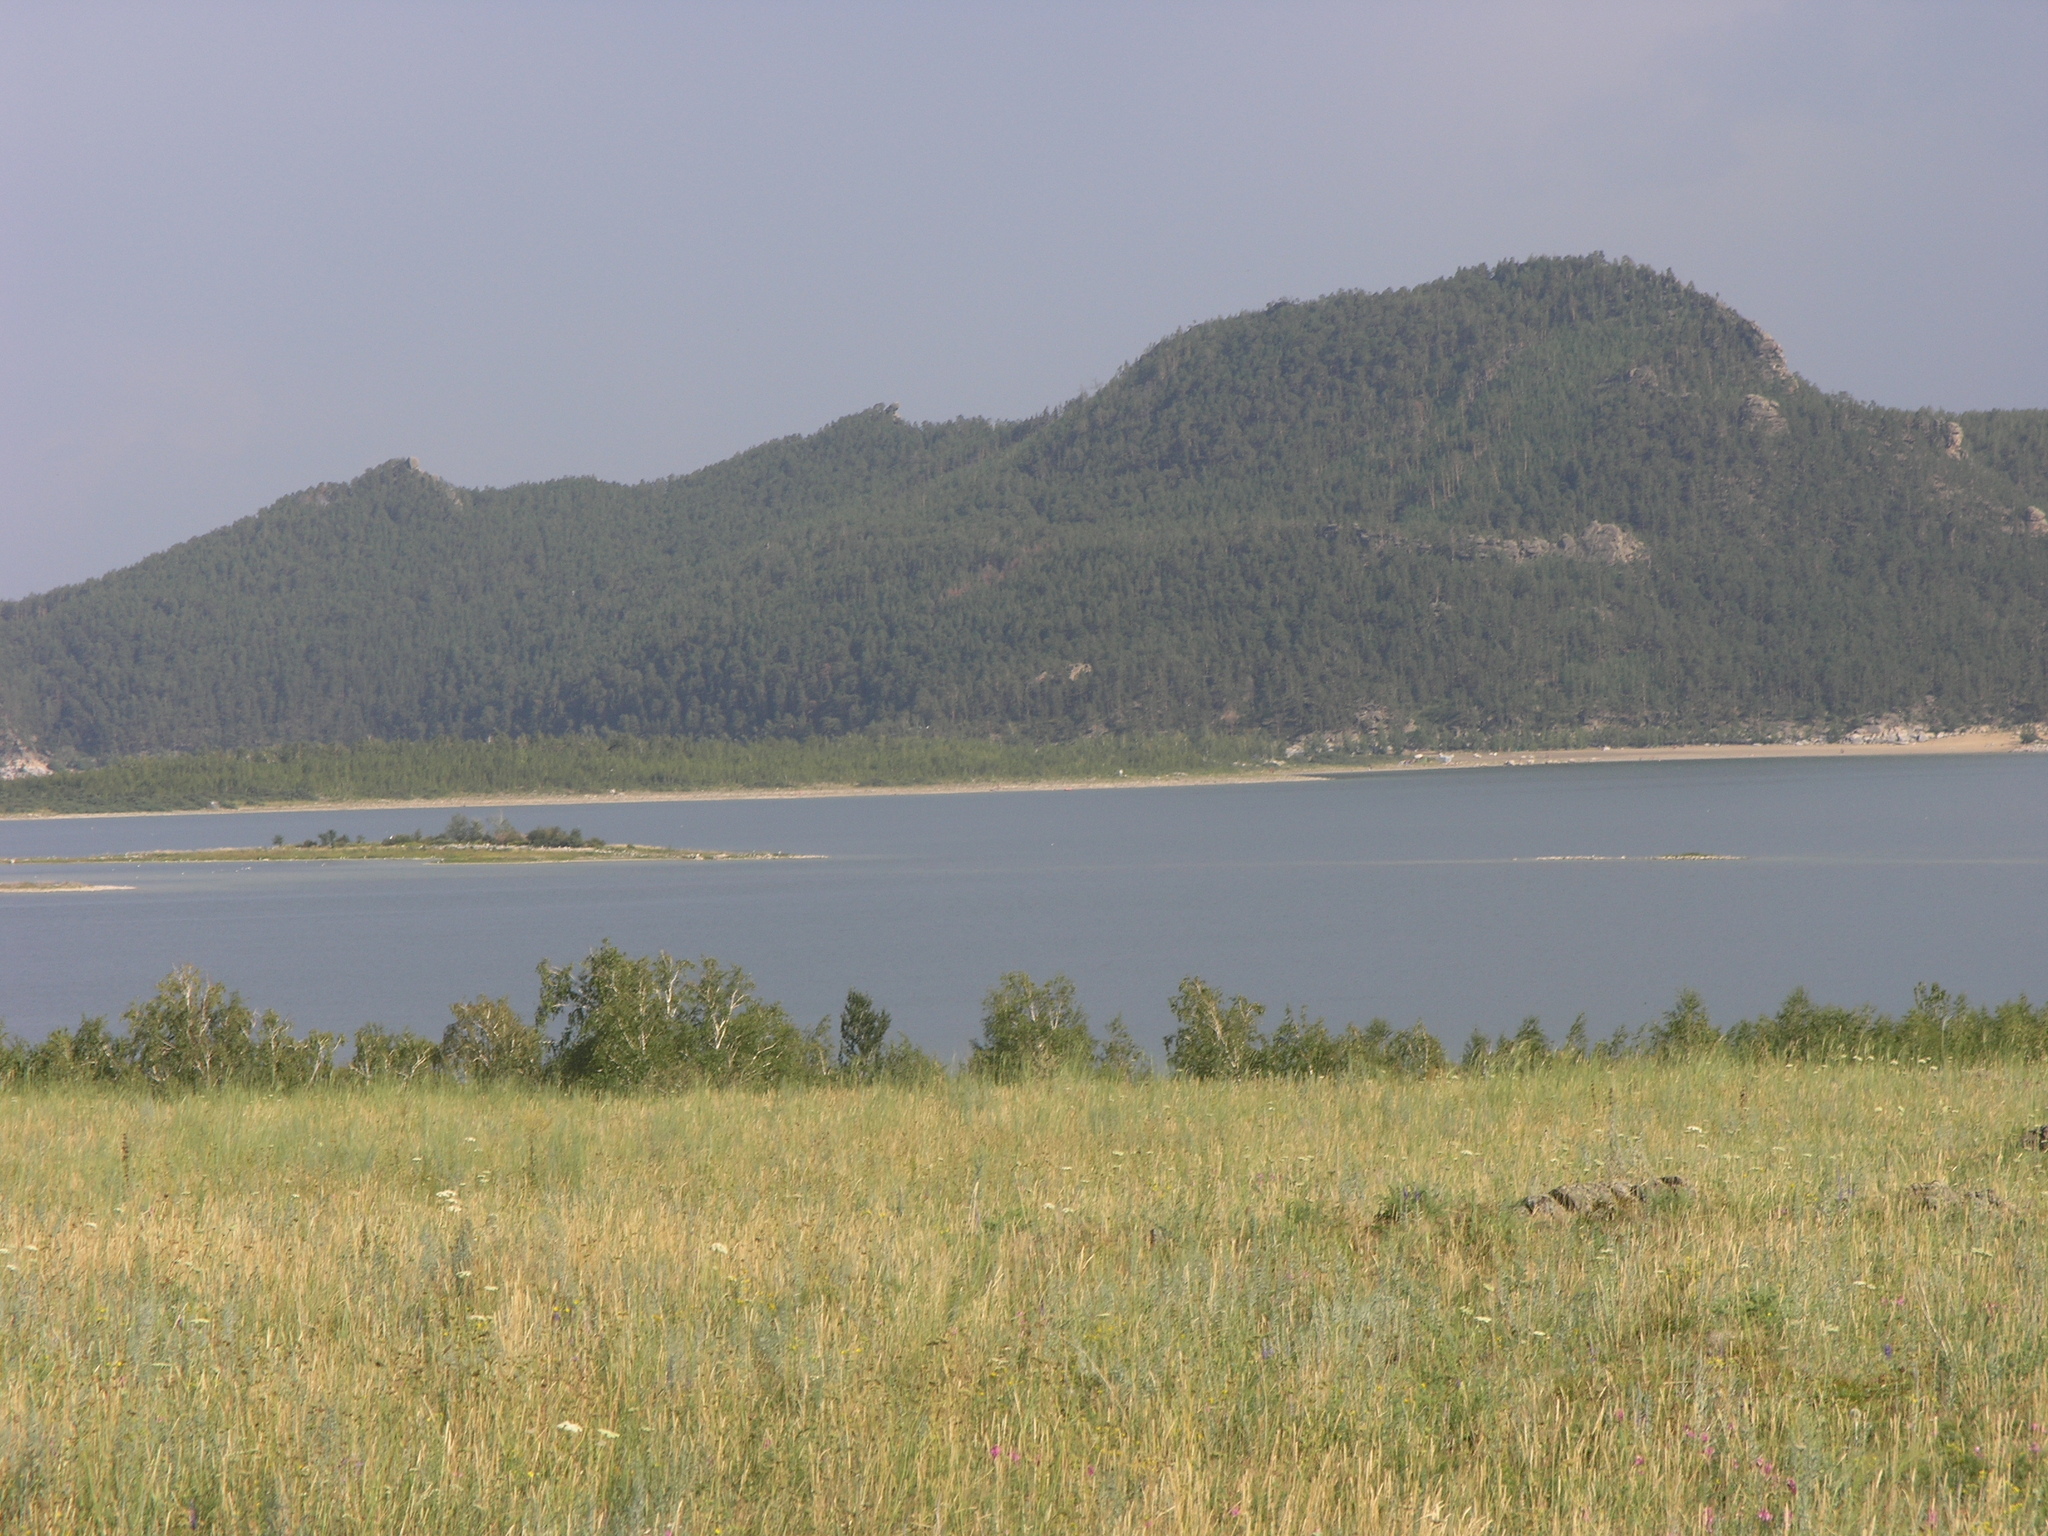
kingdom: Plantae
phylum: Tracheophyta
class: Magnoliopsida
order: Fagales
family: Betulaceae
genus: Betula
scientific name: Betula pendula
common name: Silver birch
